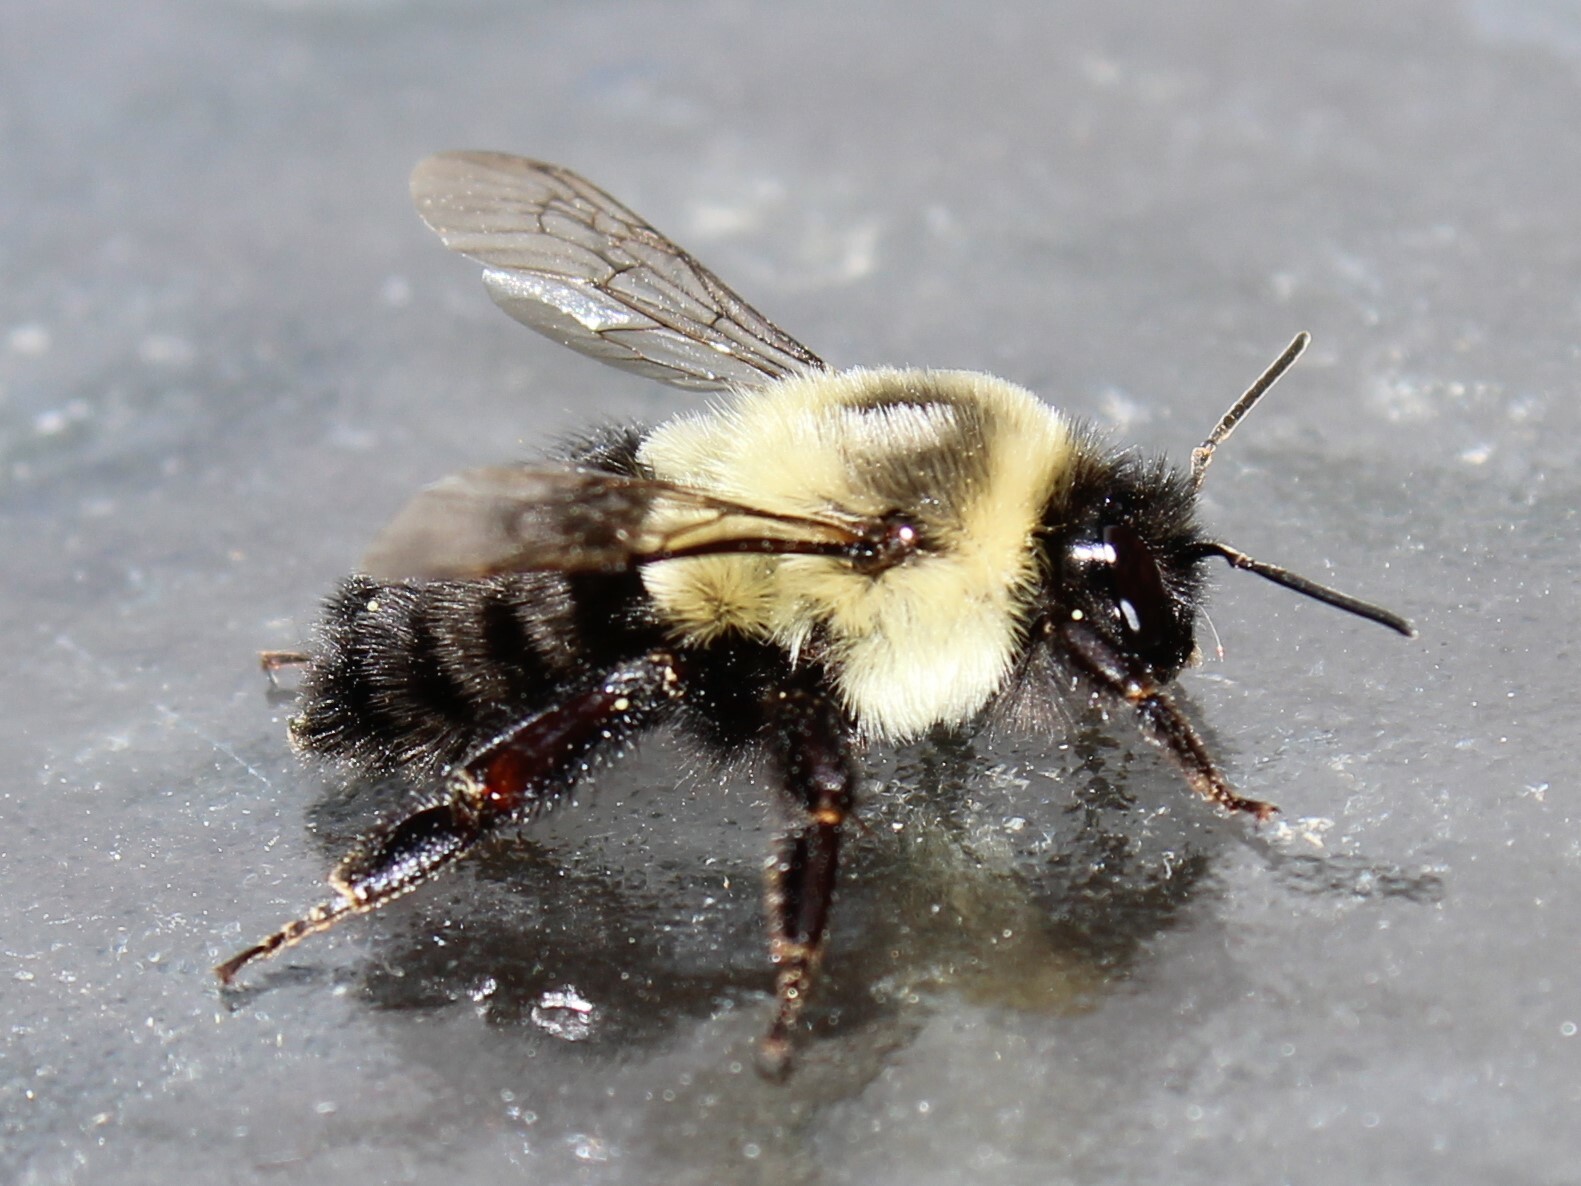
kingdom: Animalia
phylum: Arthropoda
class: Insecta
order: Hymenoptera
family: Apidae
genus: Bombus
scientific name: Bombus impatiens
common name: Common eastern bumble bee
